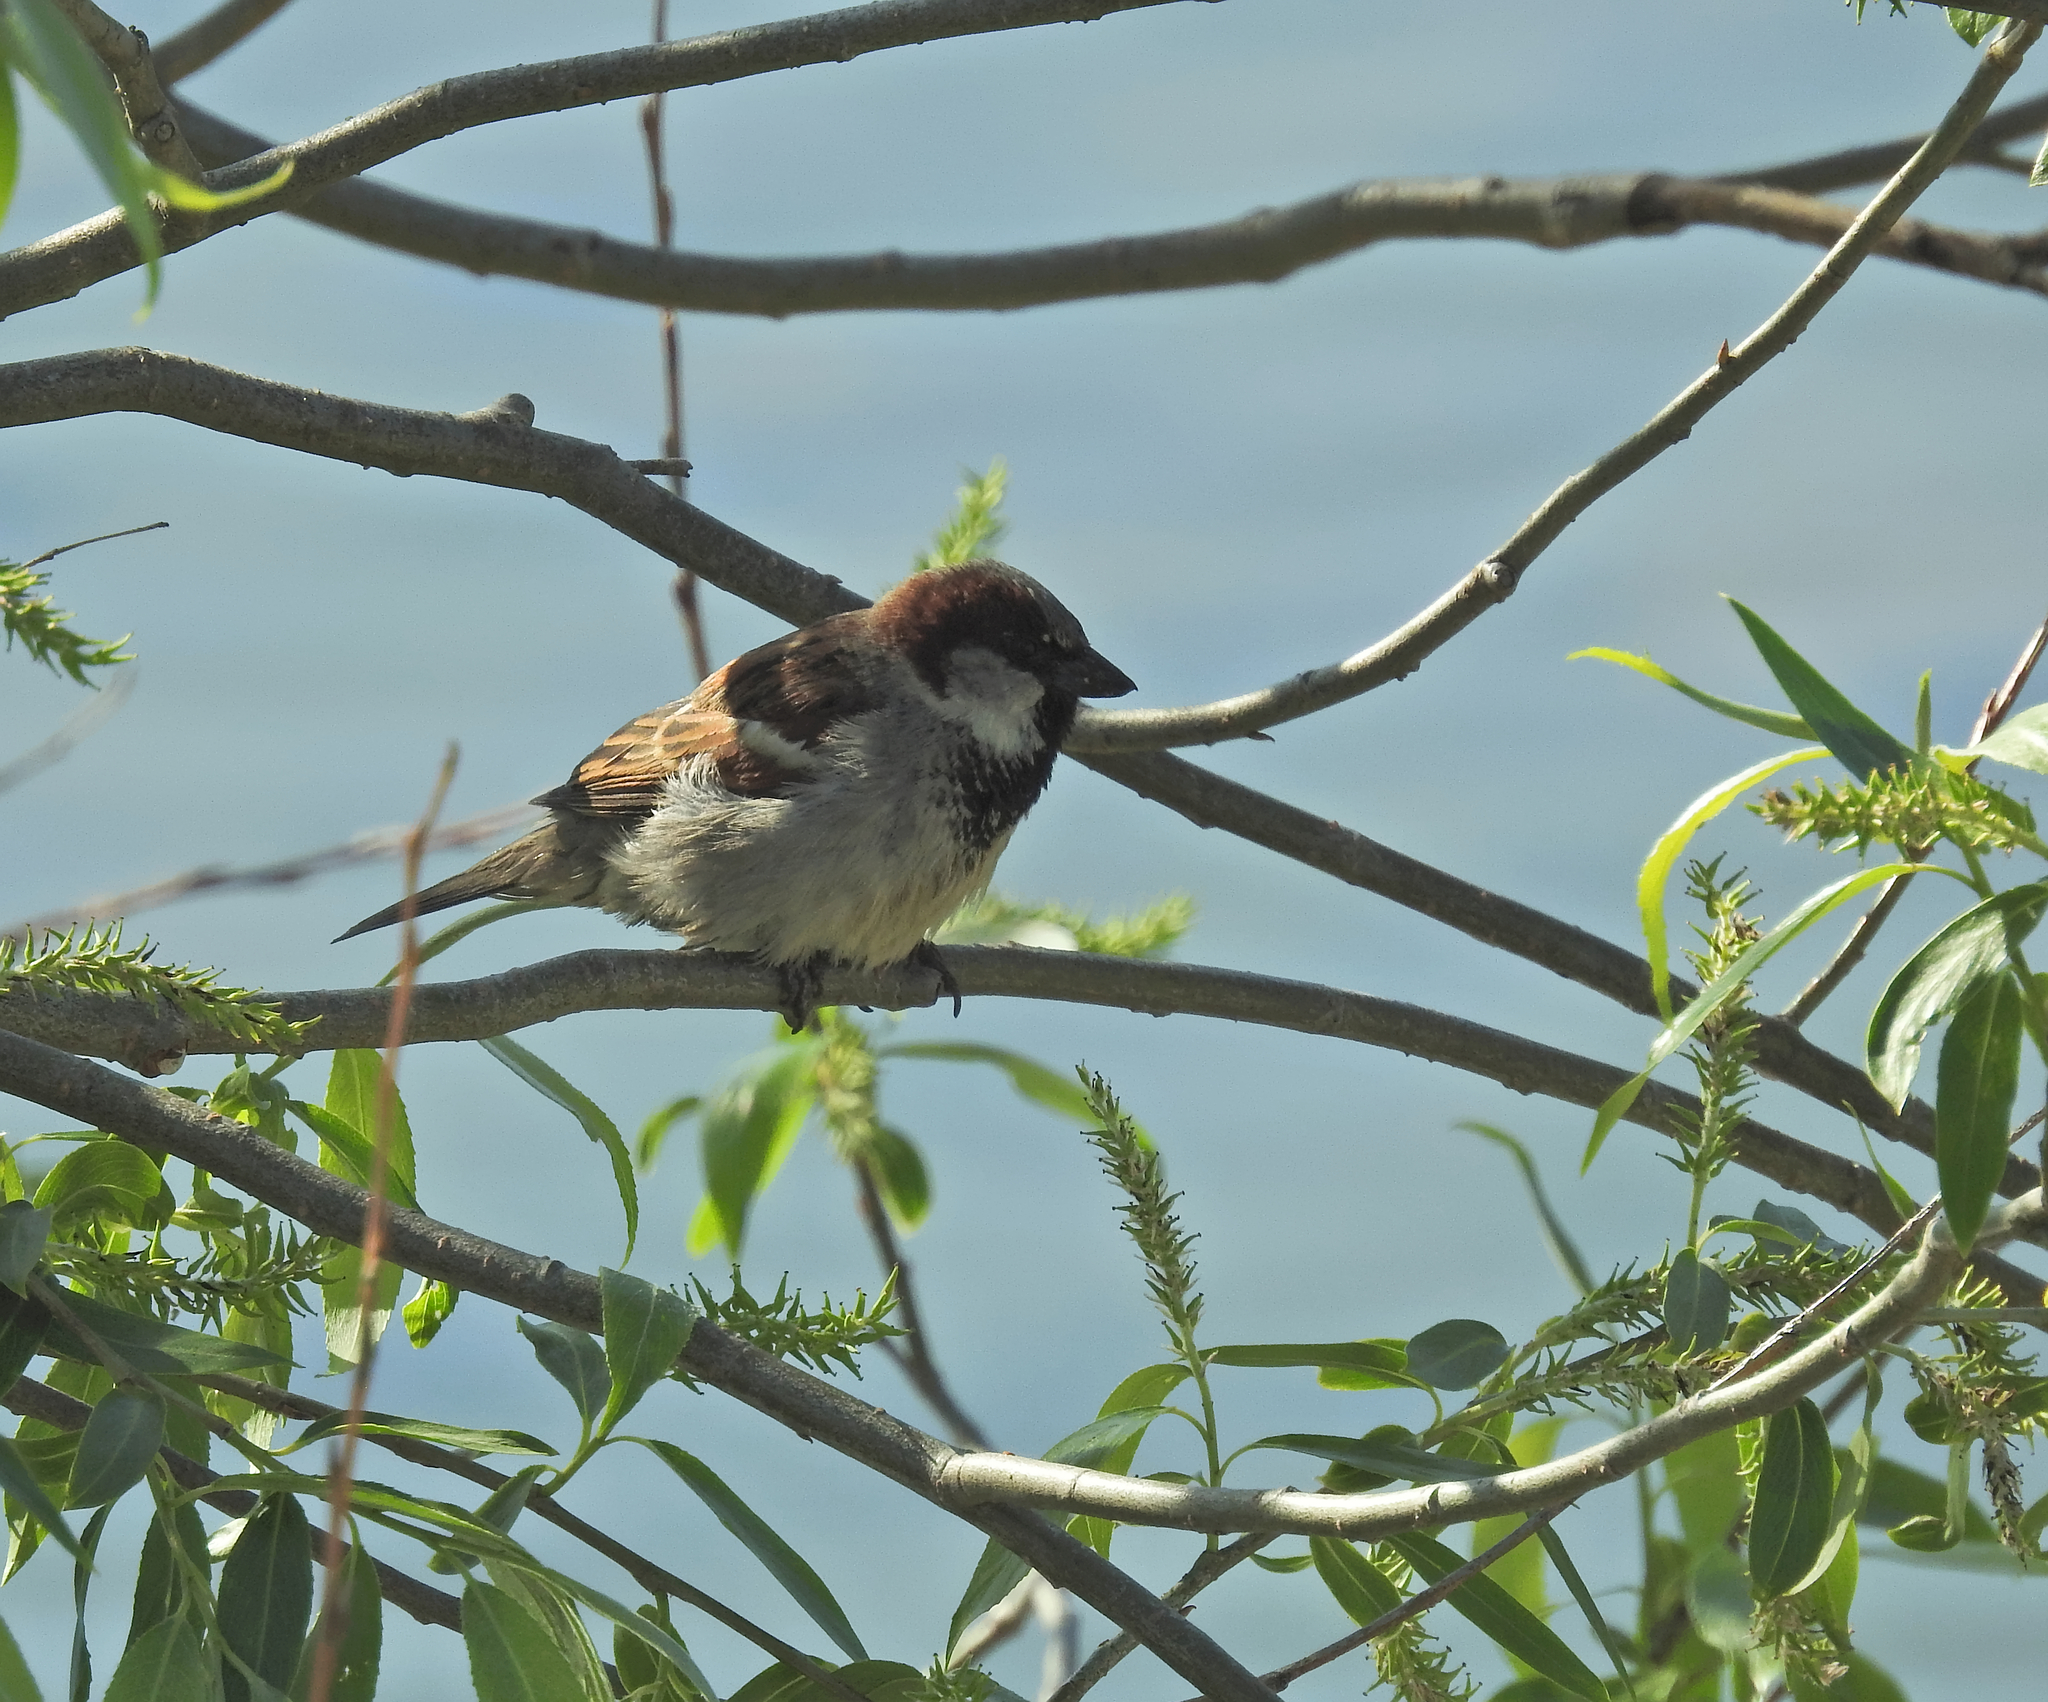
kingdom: Animalia
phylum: Chordata
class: Aves
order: Passeriformes
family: Passeridae
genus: Passer
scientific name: Passer domesticus
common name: House sparrow
